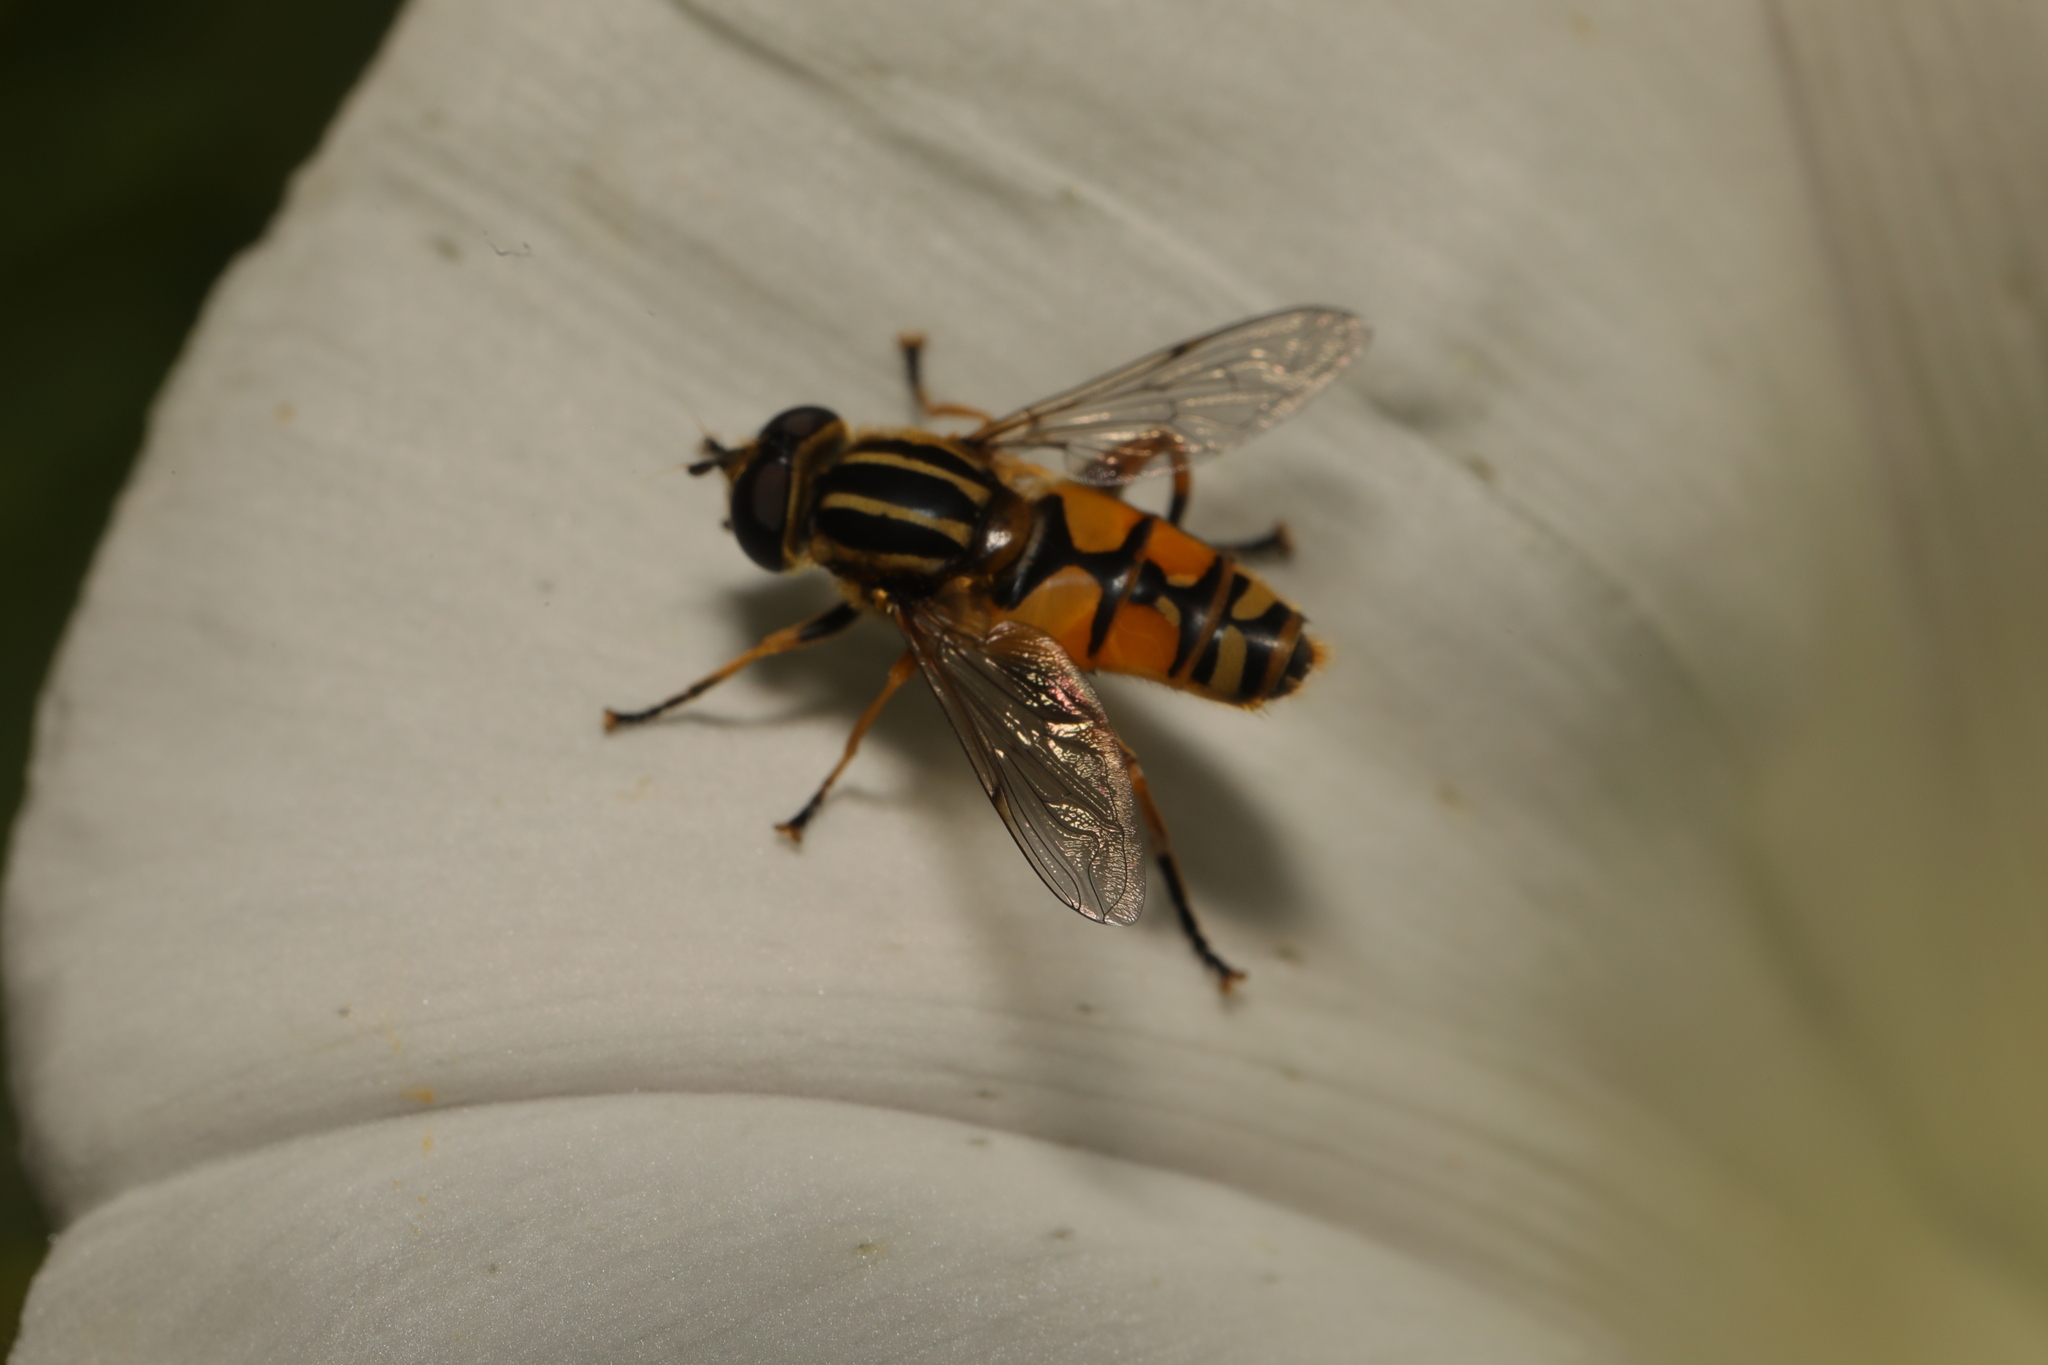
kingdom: Animalia
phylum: Arthropoda
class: Insecta
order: Diptera
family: Syrphidae
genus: Helophilus
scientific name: Helophilus pendulus
